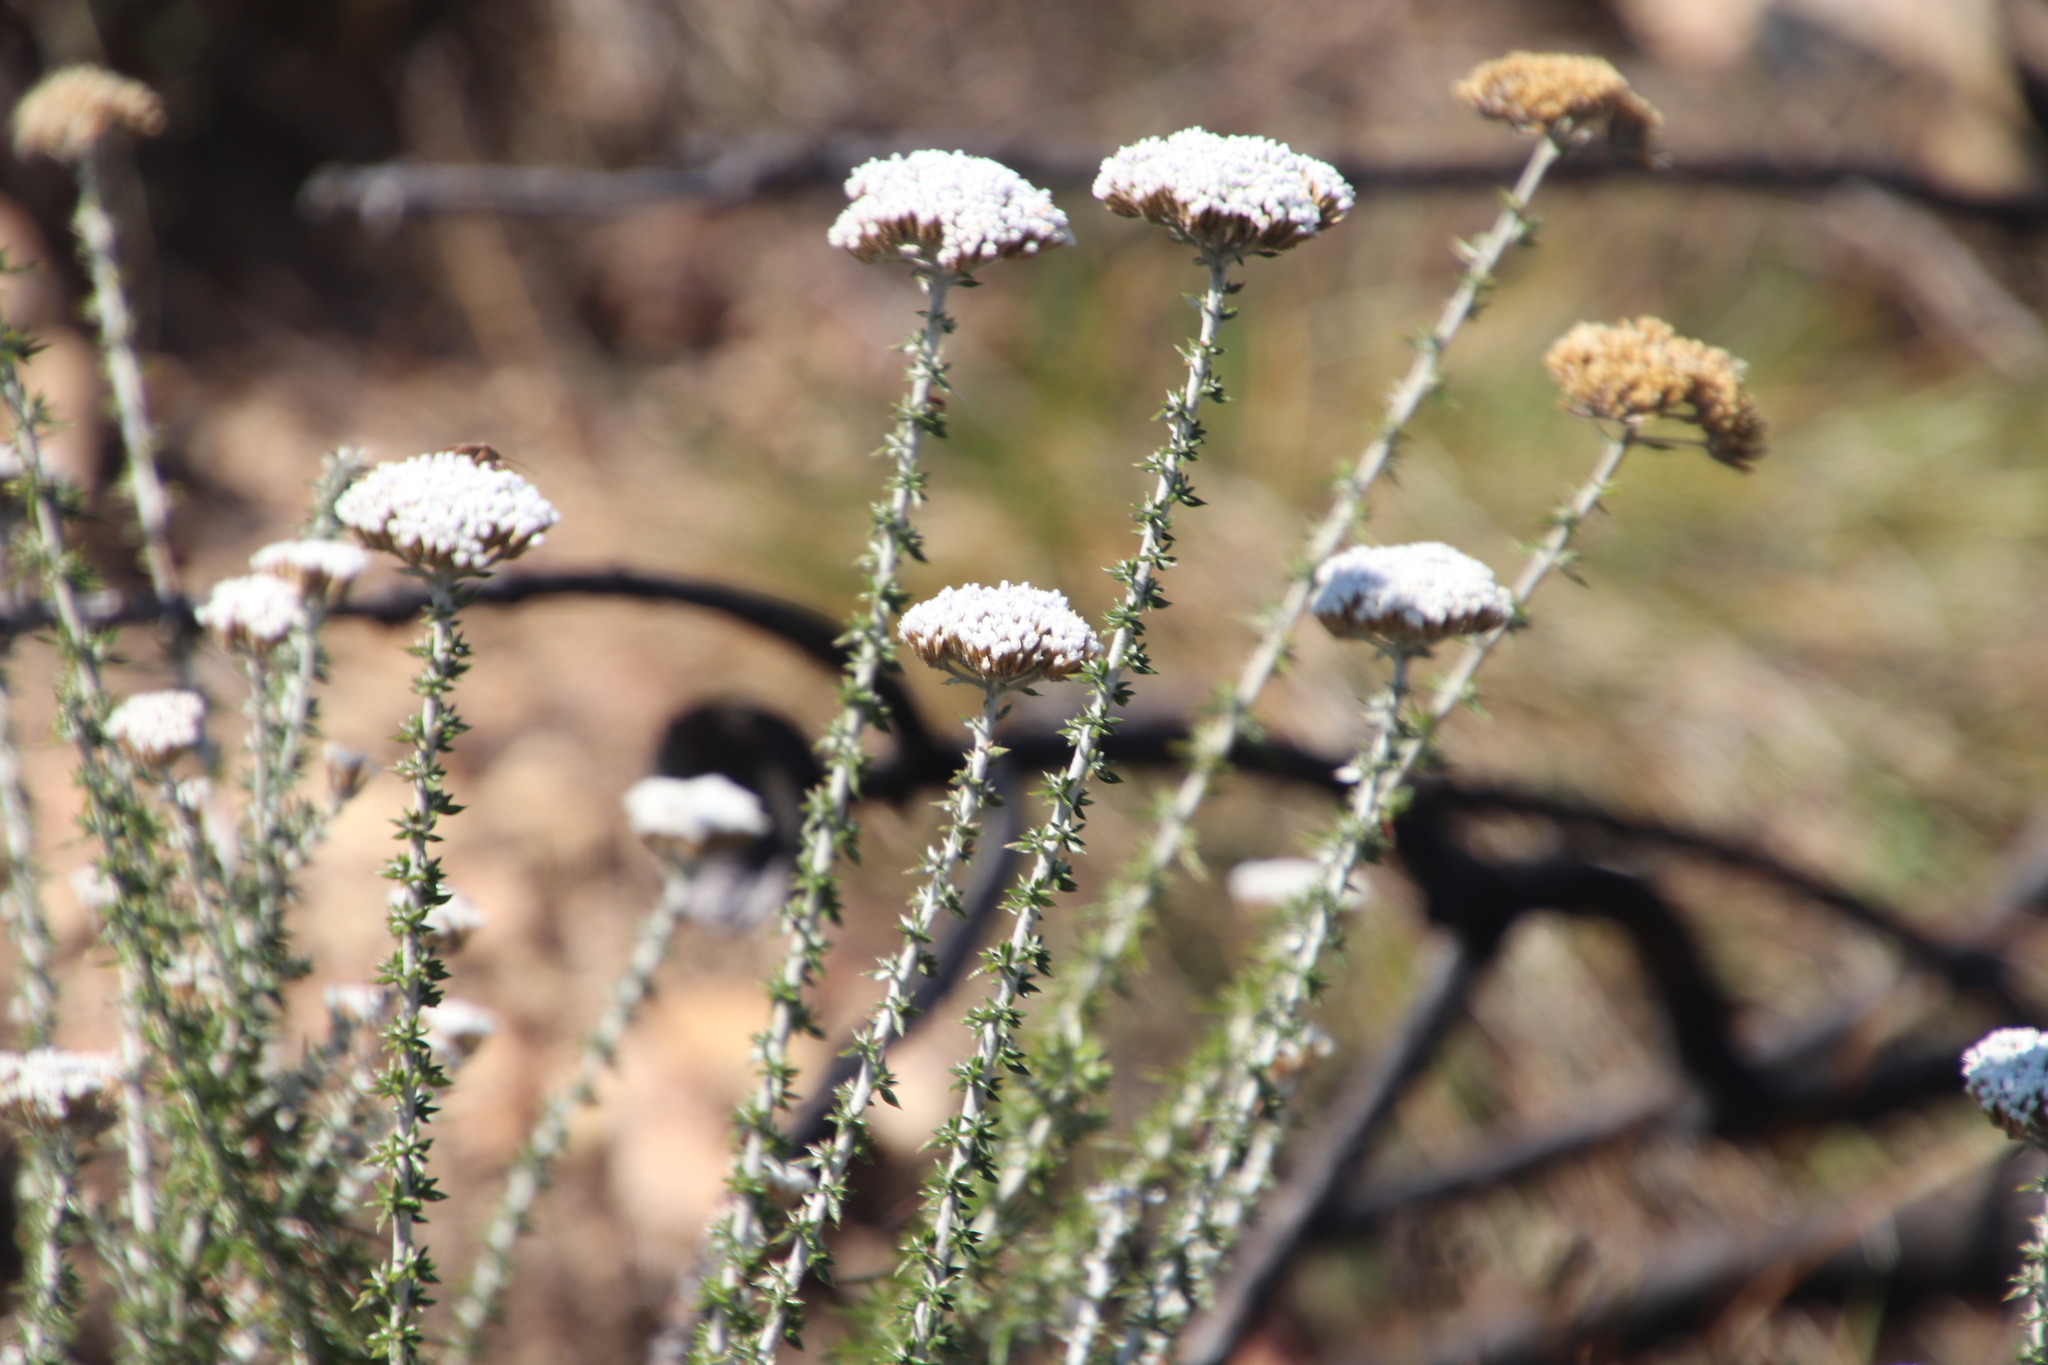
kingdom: Plantae
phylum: Tracheophyta
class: Magnoliopsida
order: Asterales
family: Asteraceae
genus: Metalasia
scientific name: Metalasia densa
